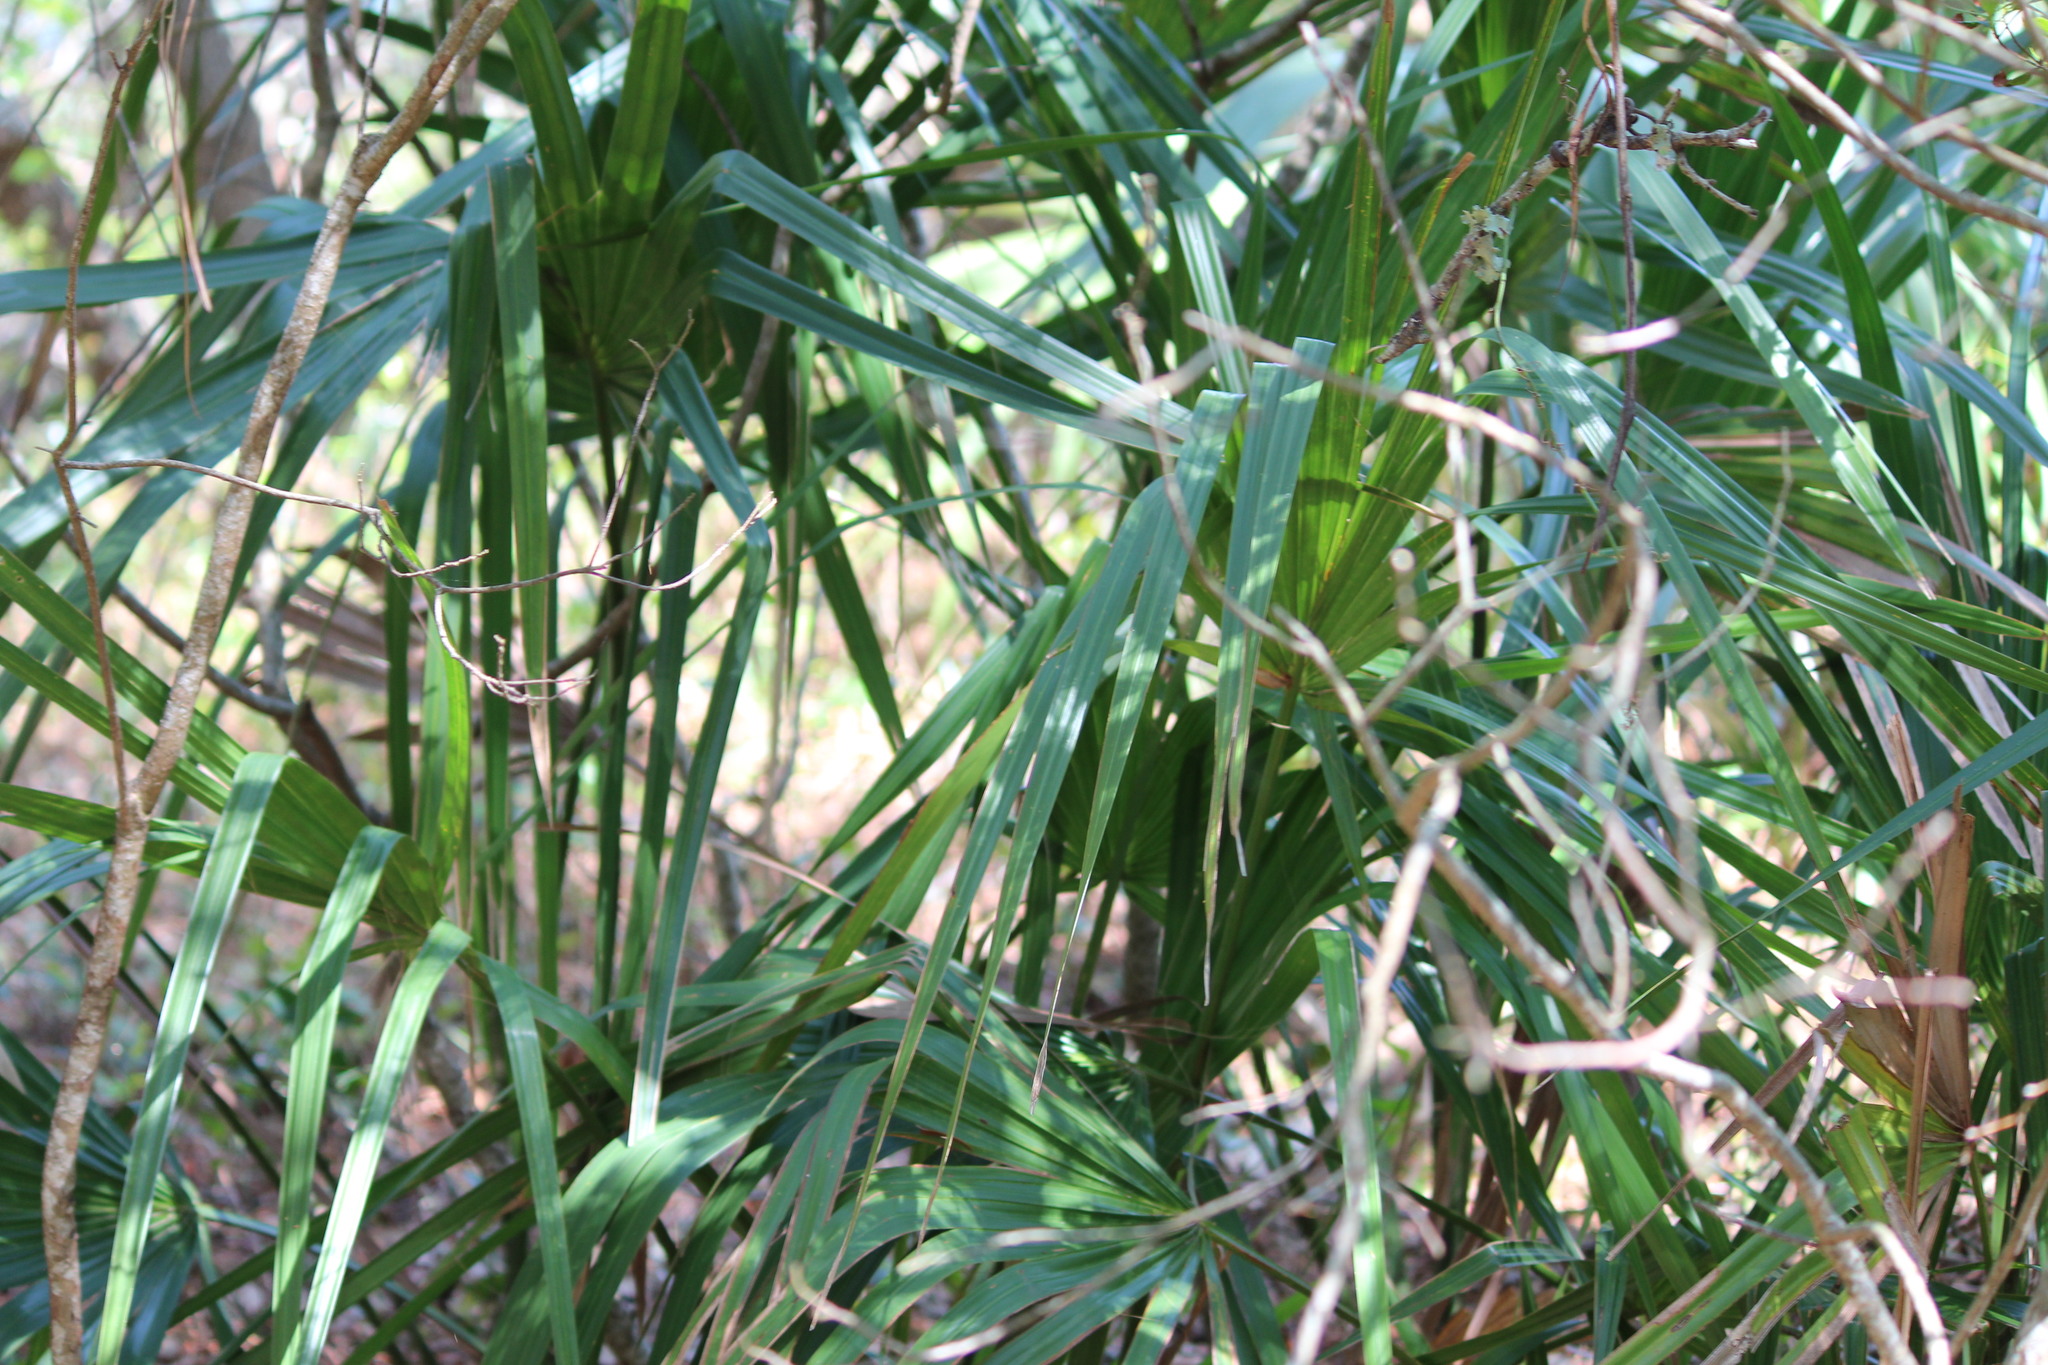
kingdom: Plantae
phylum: Tracheophyta
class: Liliopsida
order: Arecales
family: Arecaceae
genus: Sabal
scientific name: Sabal minor
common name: Dwarf palmetto
